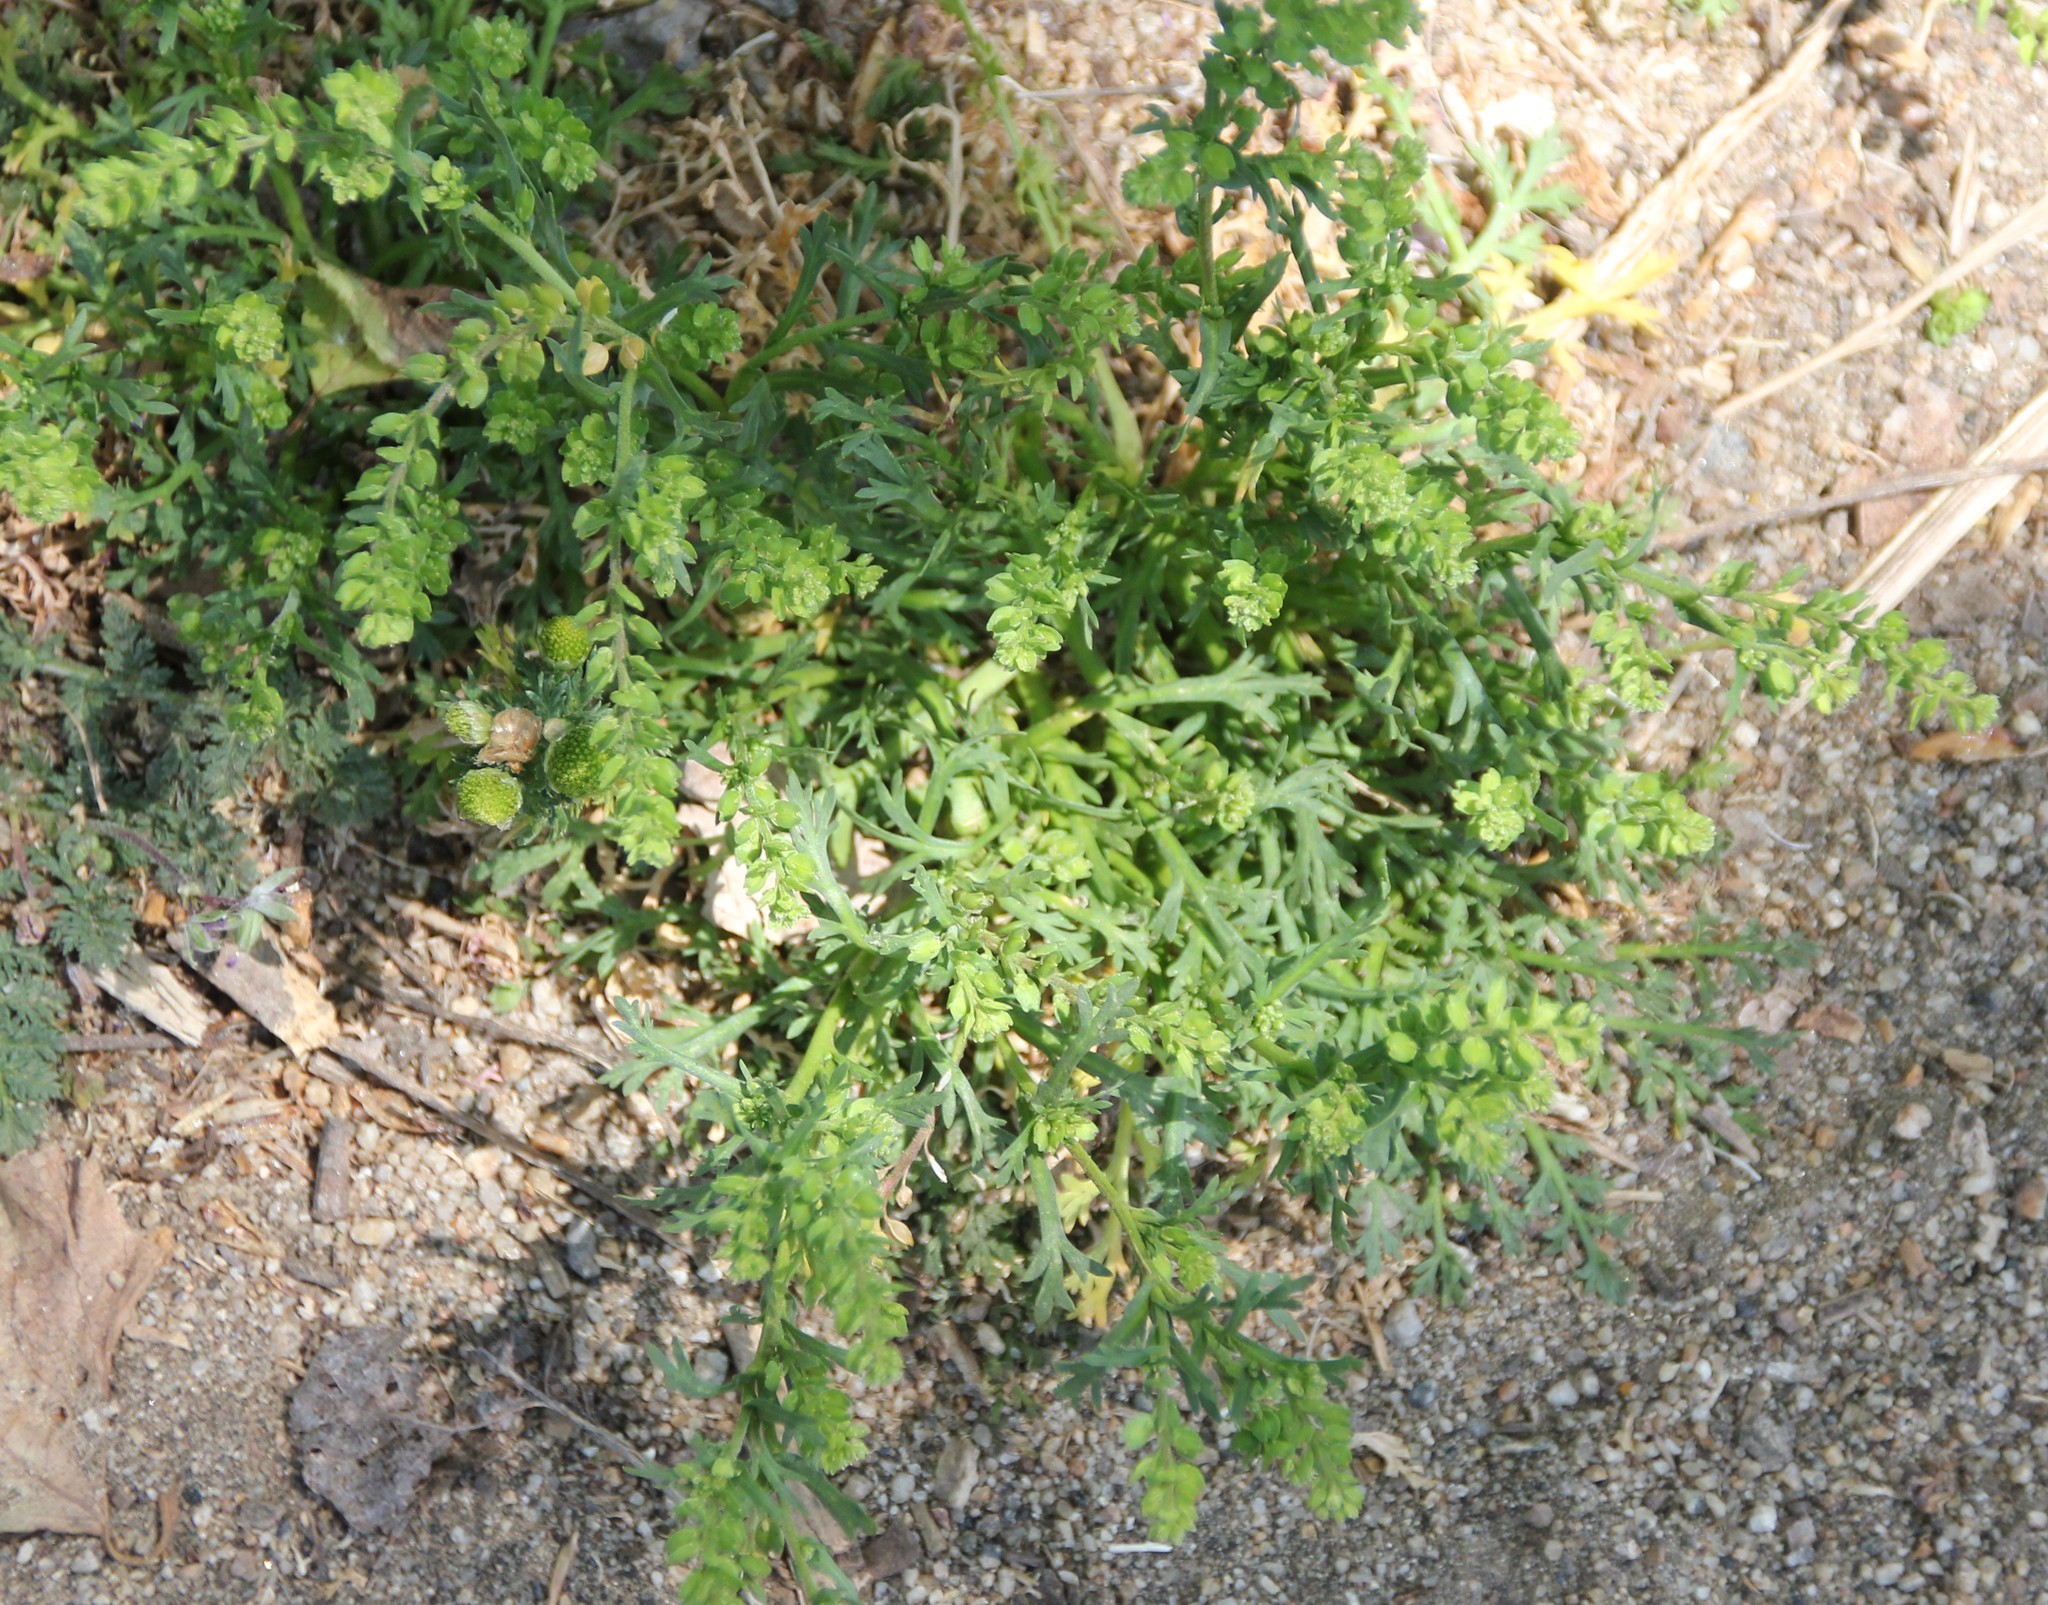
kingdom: Plantae
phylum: Tracheophyta
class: Magnoliopsida
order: Brassicales
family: Brassicaceae
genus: Lepidium
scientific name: Lepidium strictum
